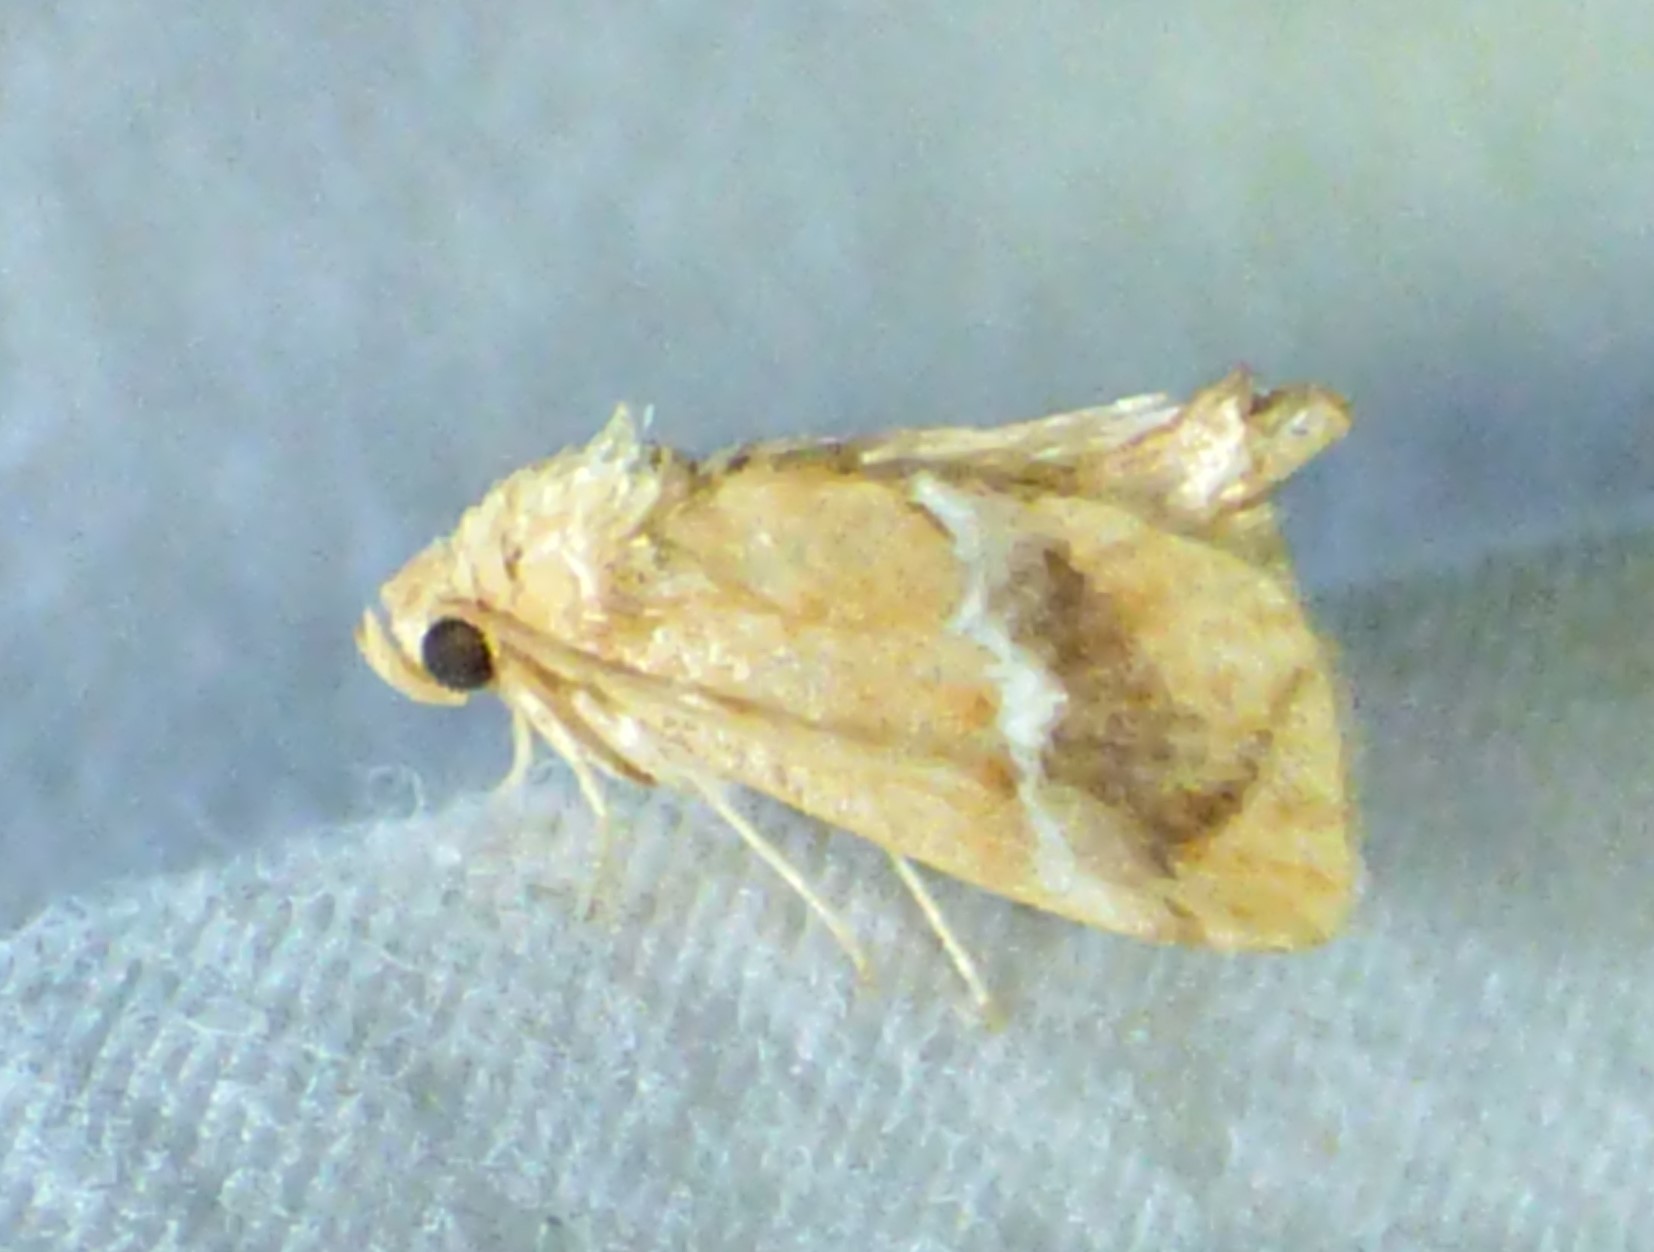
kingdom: Animalia
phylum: Arthropoda
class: Insecta
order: Lepidoptera
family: Limacodidae
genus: Lithacodes
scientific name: Lithacodes fasciola
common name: Yellow-shouldered slug moth
